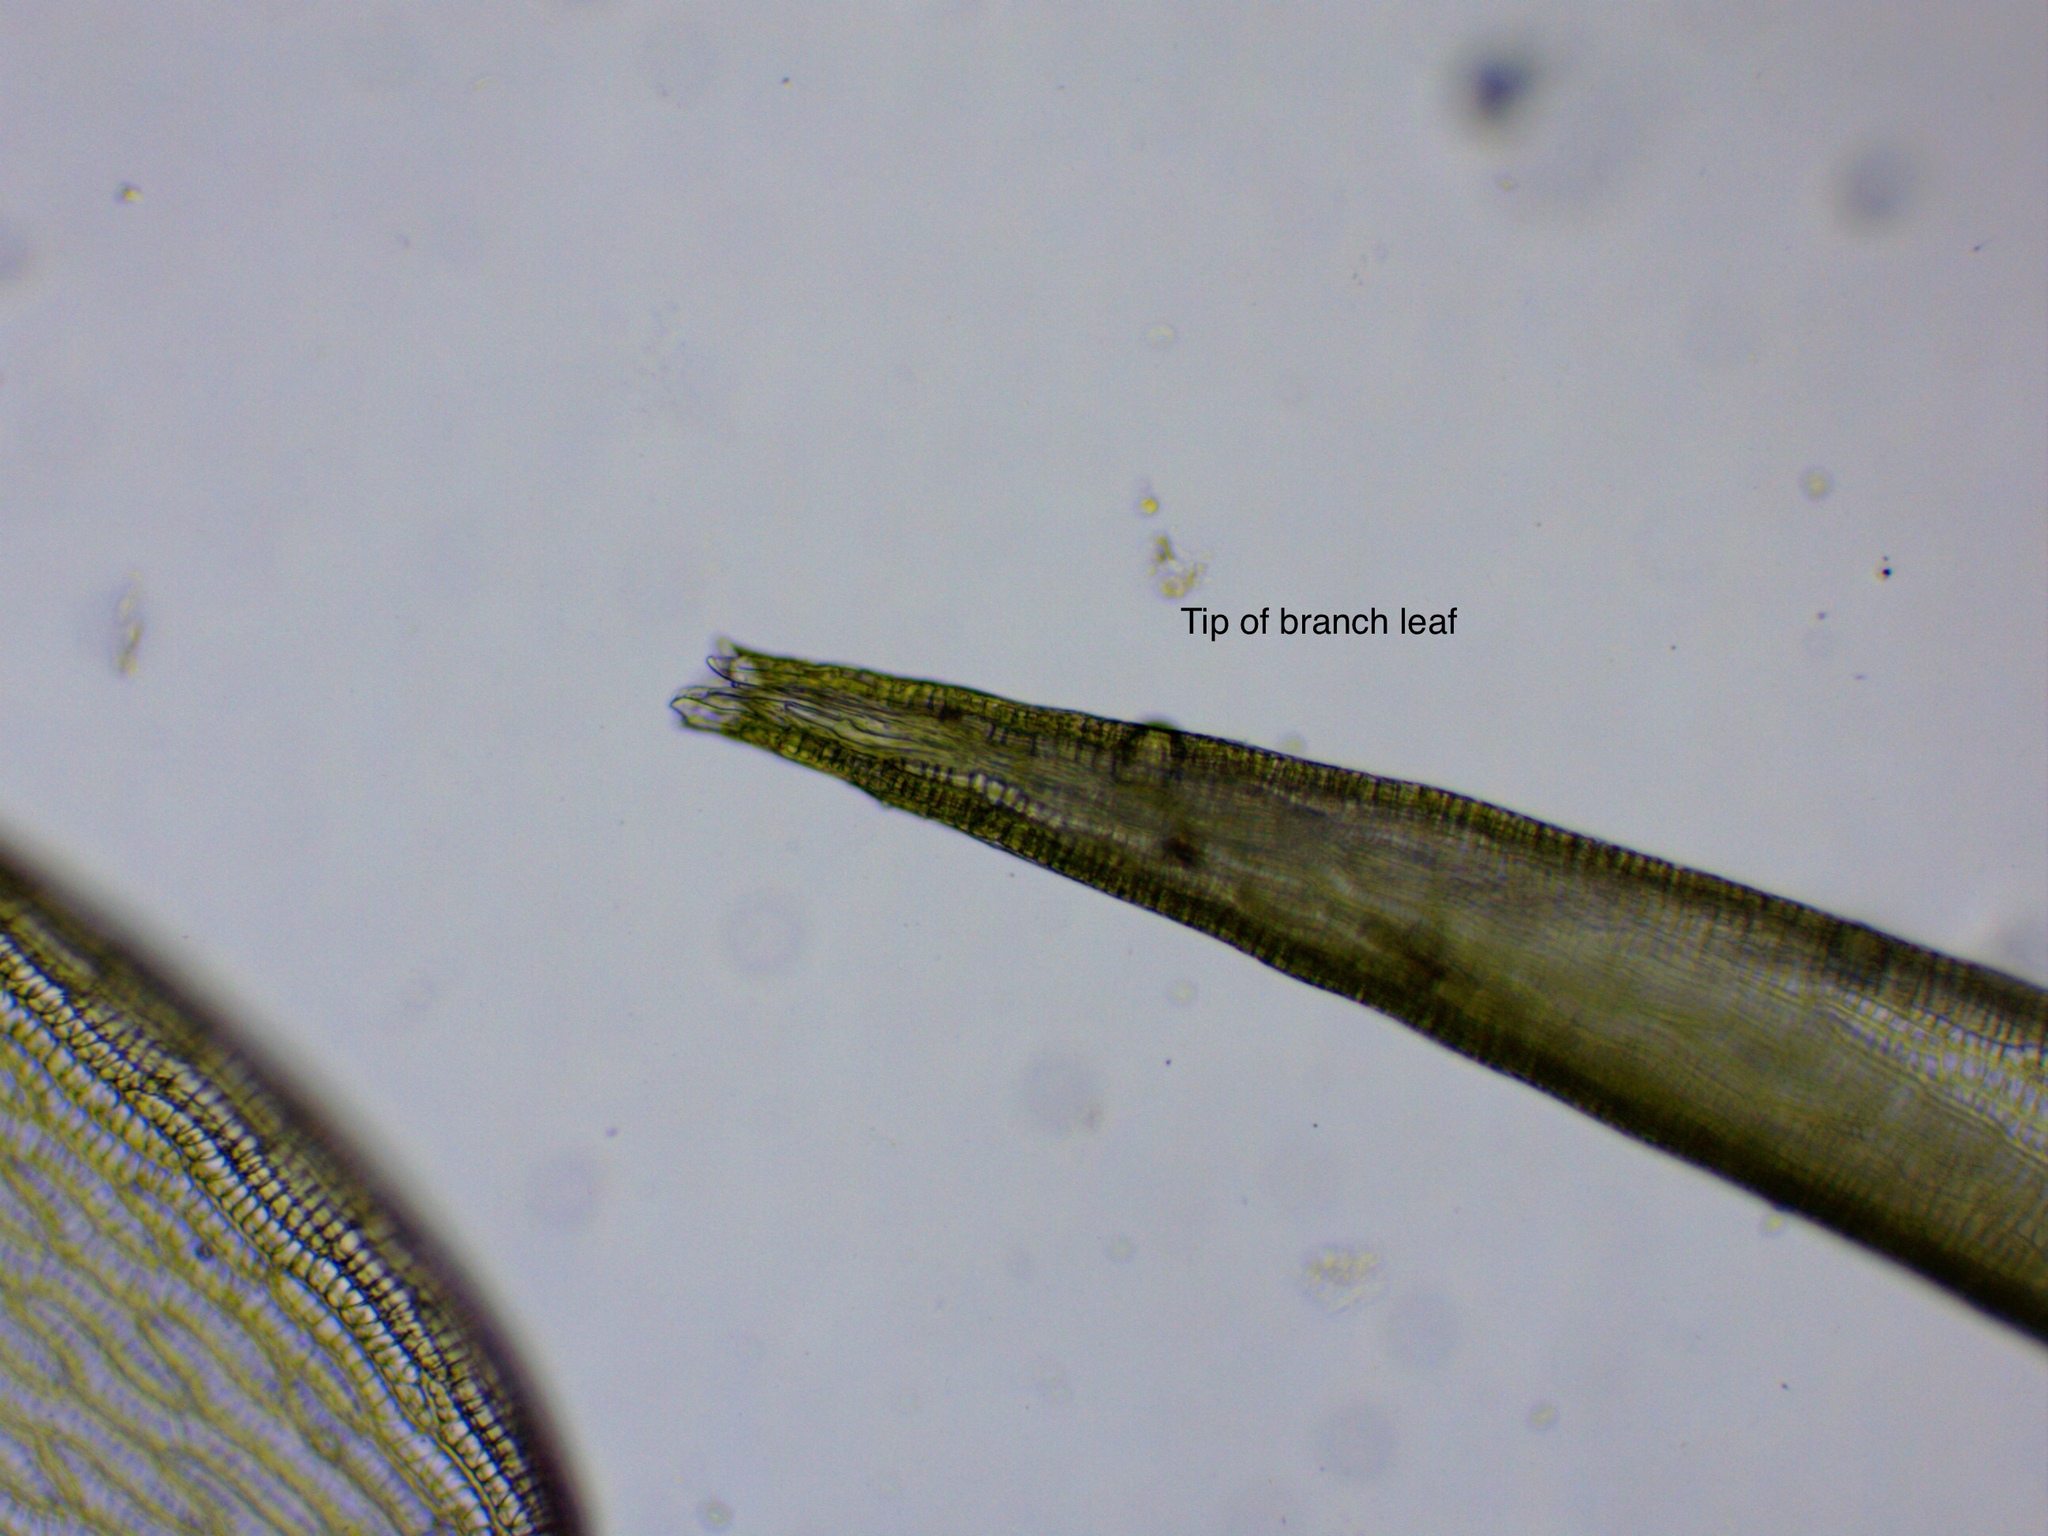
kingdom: Plantae
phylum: Bryophyta
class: Sphagnopsida
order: Sphagnales
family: Sphagnaceae
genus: Sphagnum
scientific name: Sphagnum cuspidatum
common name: Feathery peat moss
